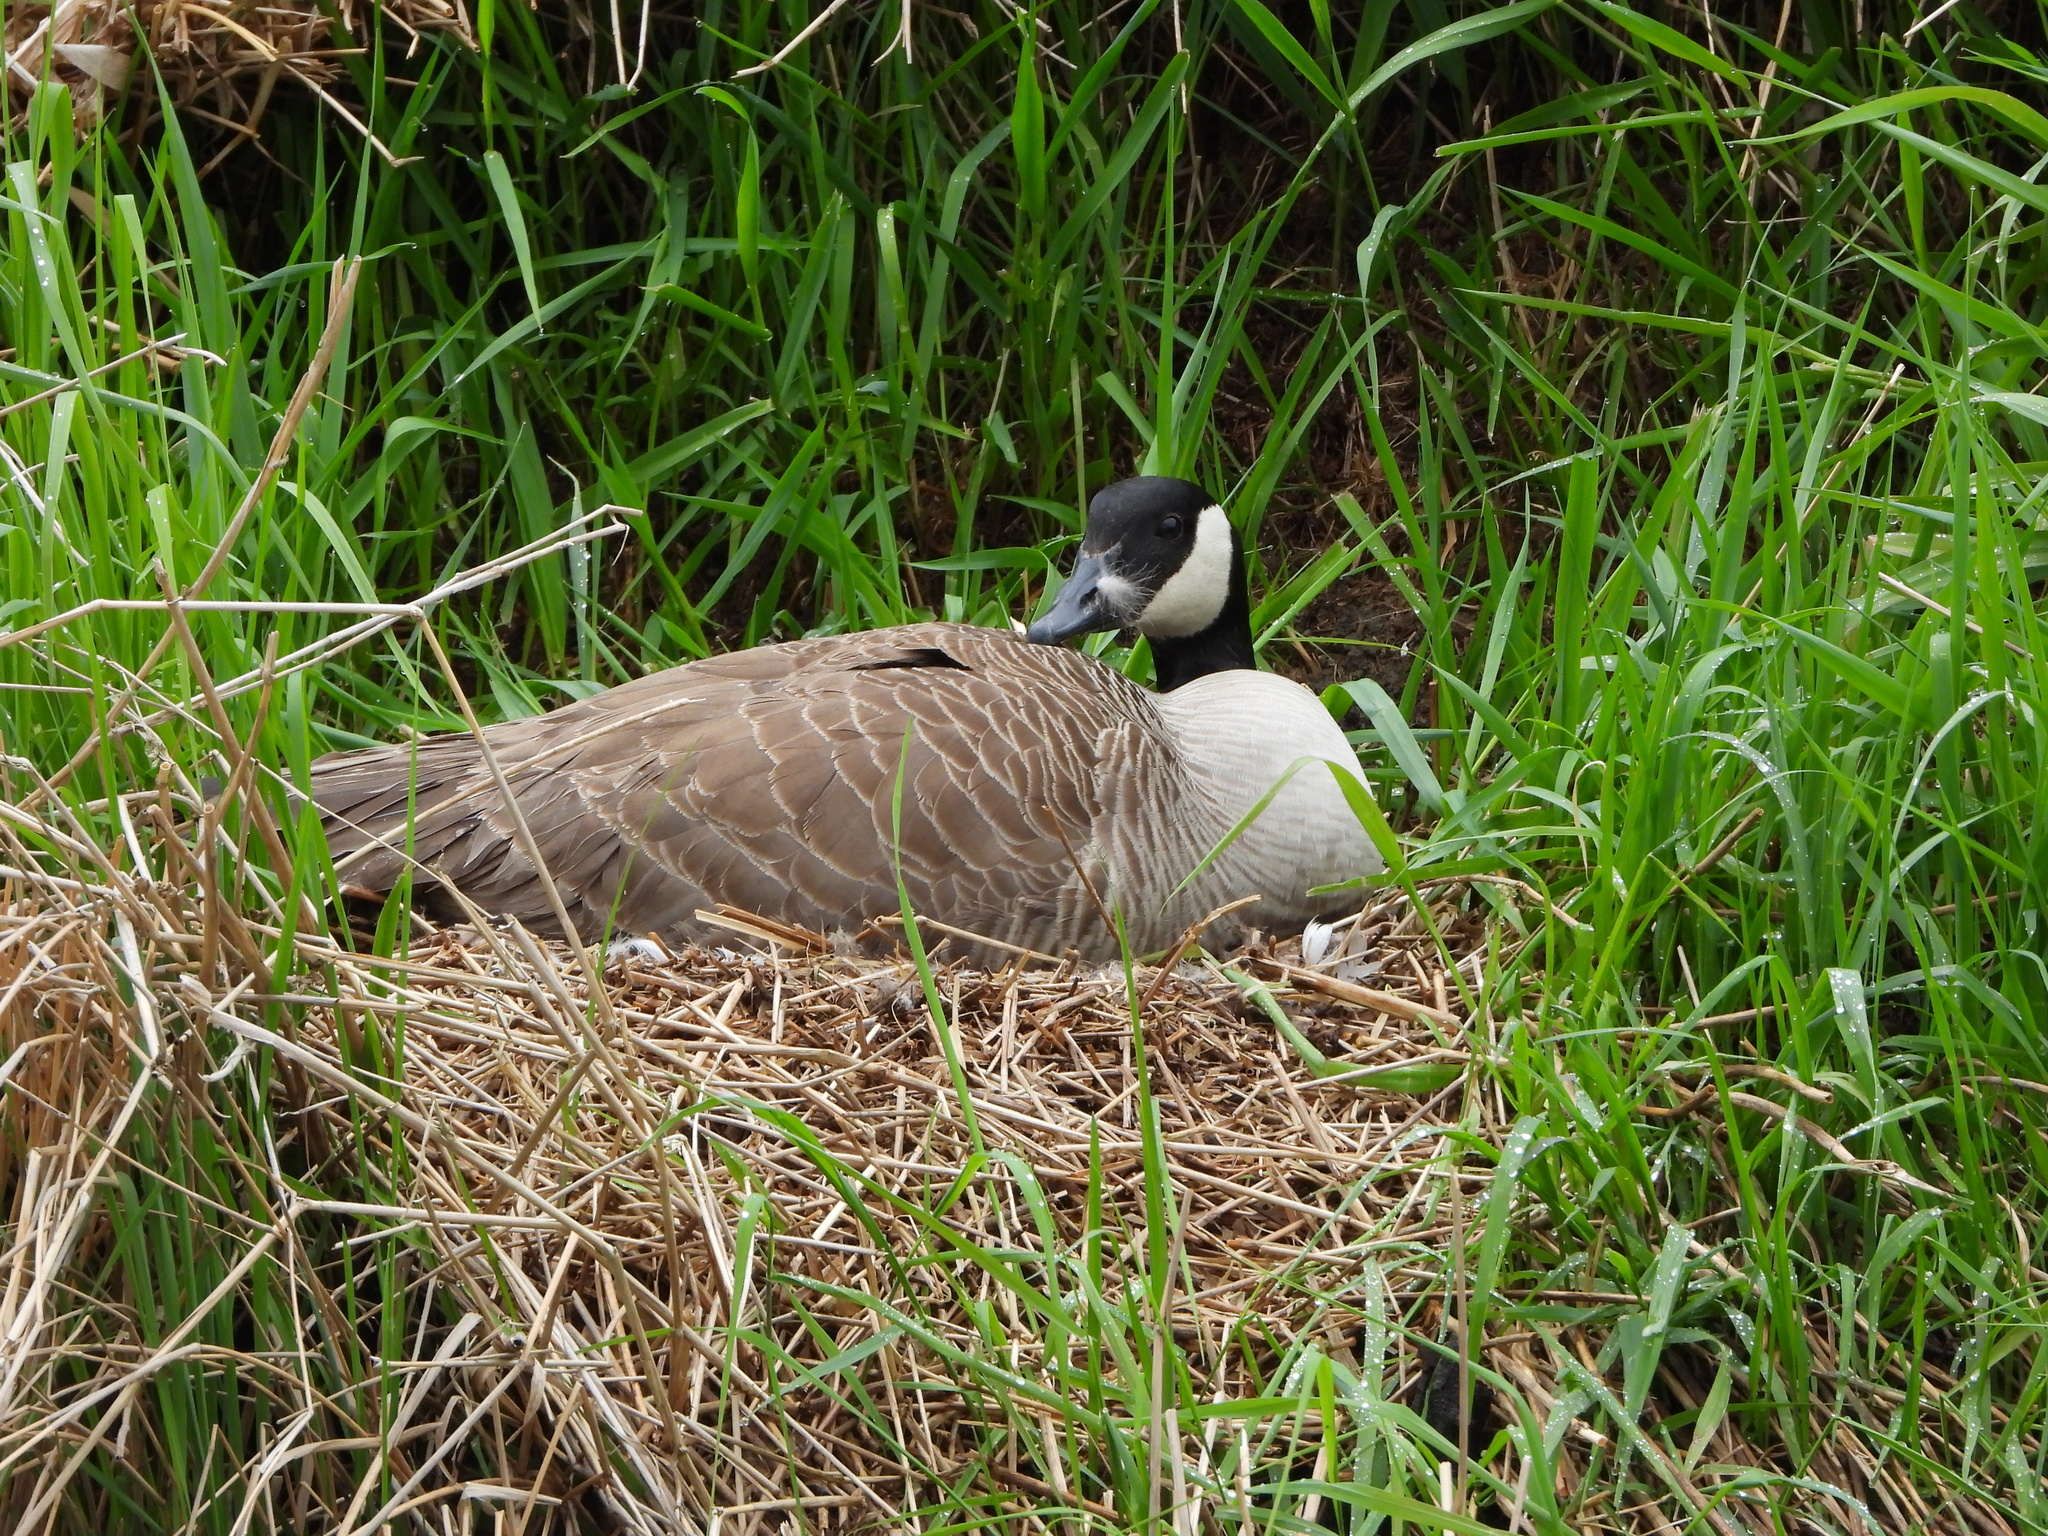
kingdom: Animalia
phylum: Chordata
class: Aves
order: Anseriformes
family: Anatidae
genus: Branta
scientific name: Branta canadensis
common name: Canada goose
